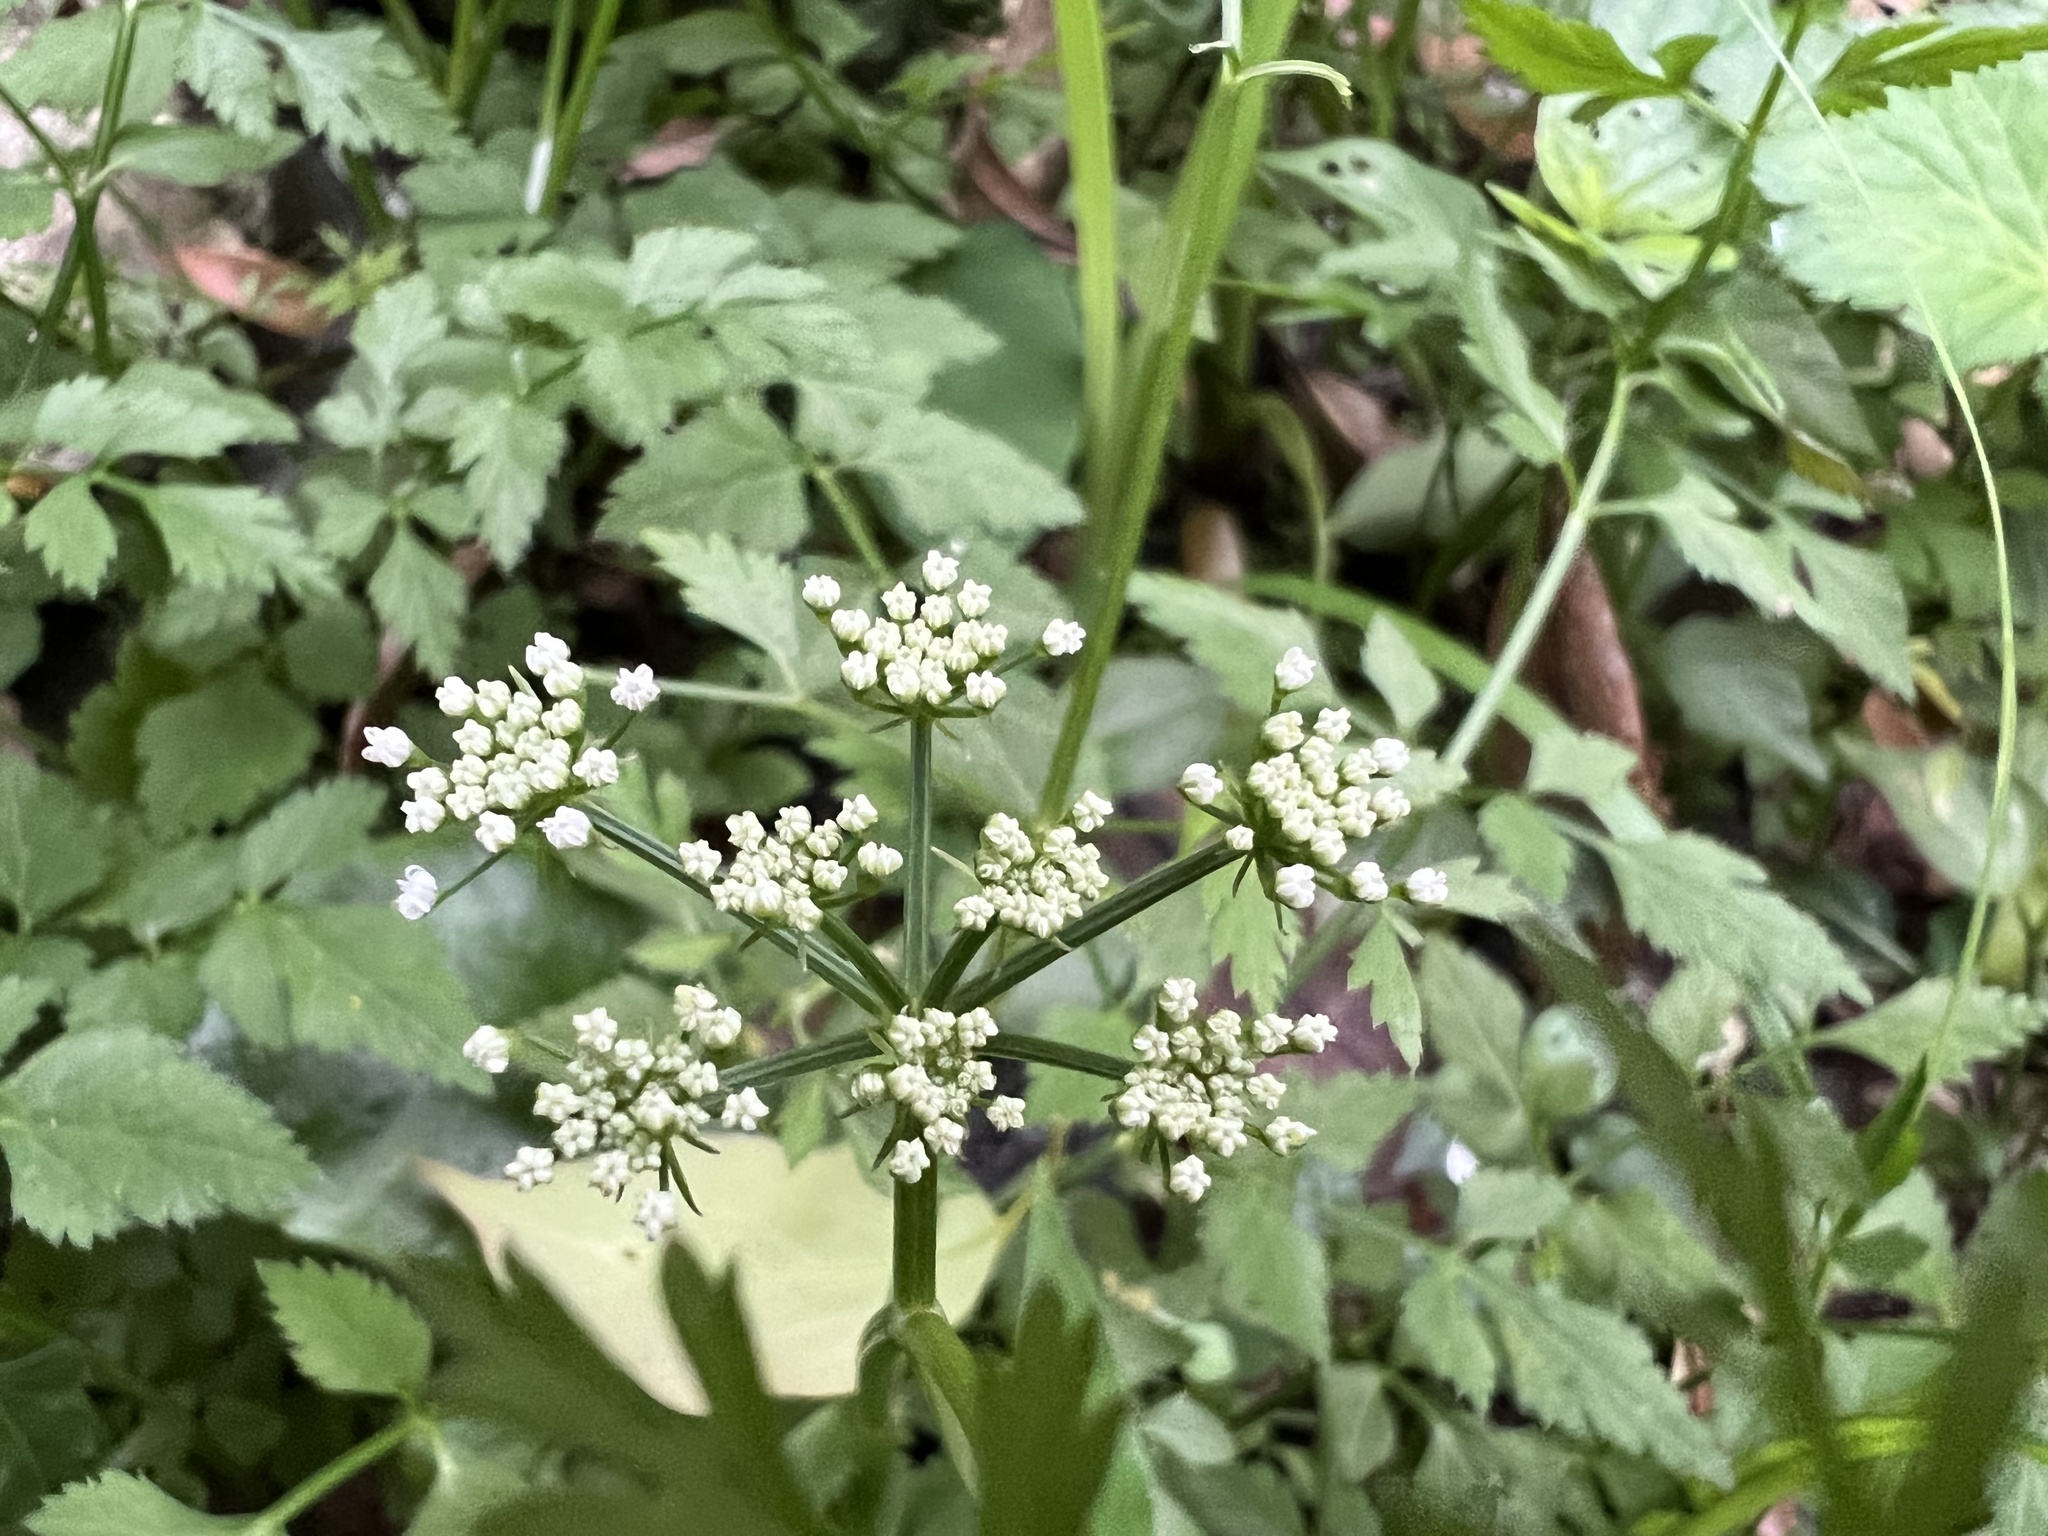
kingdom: Plantae
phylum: Tracheophyta
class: Magnoliopsida
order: Apiales
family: Apiaceae
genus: Oenanthe
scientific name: Oenanthe javanica
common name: Java water-dropwort
